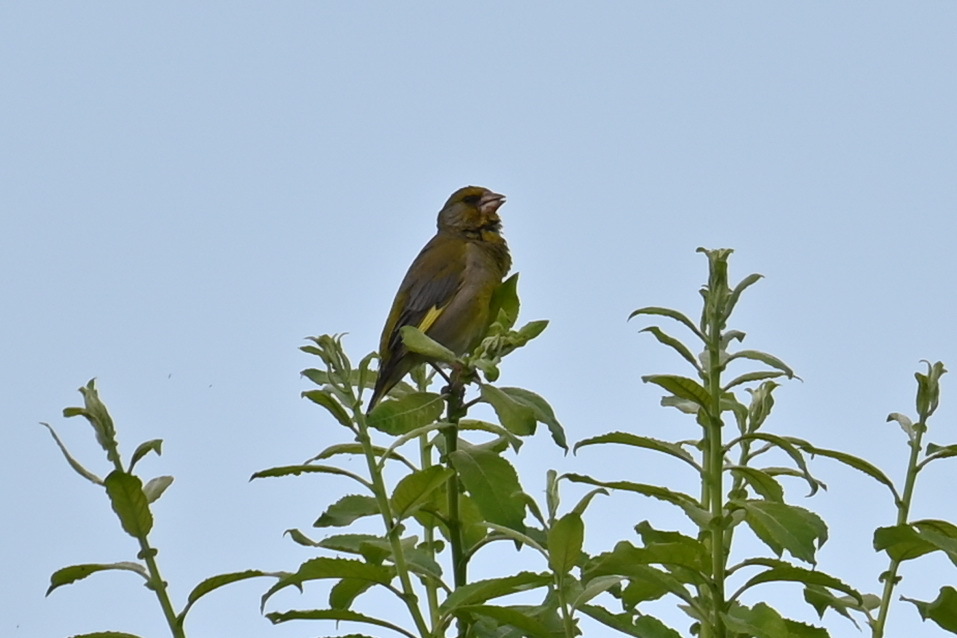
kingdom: Plantae
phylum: Tracheophyta
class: Liliopsida
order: Poales
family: Poaceae
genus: Chloris
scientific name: Chloris chloris
